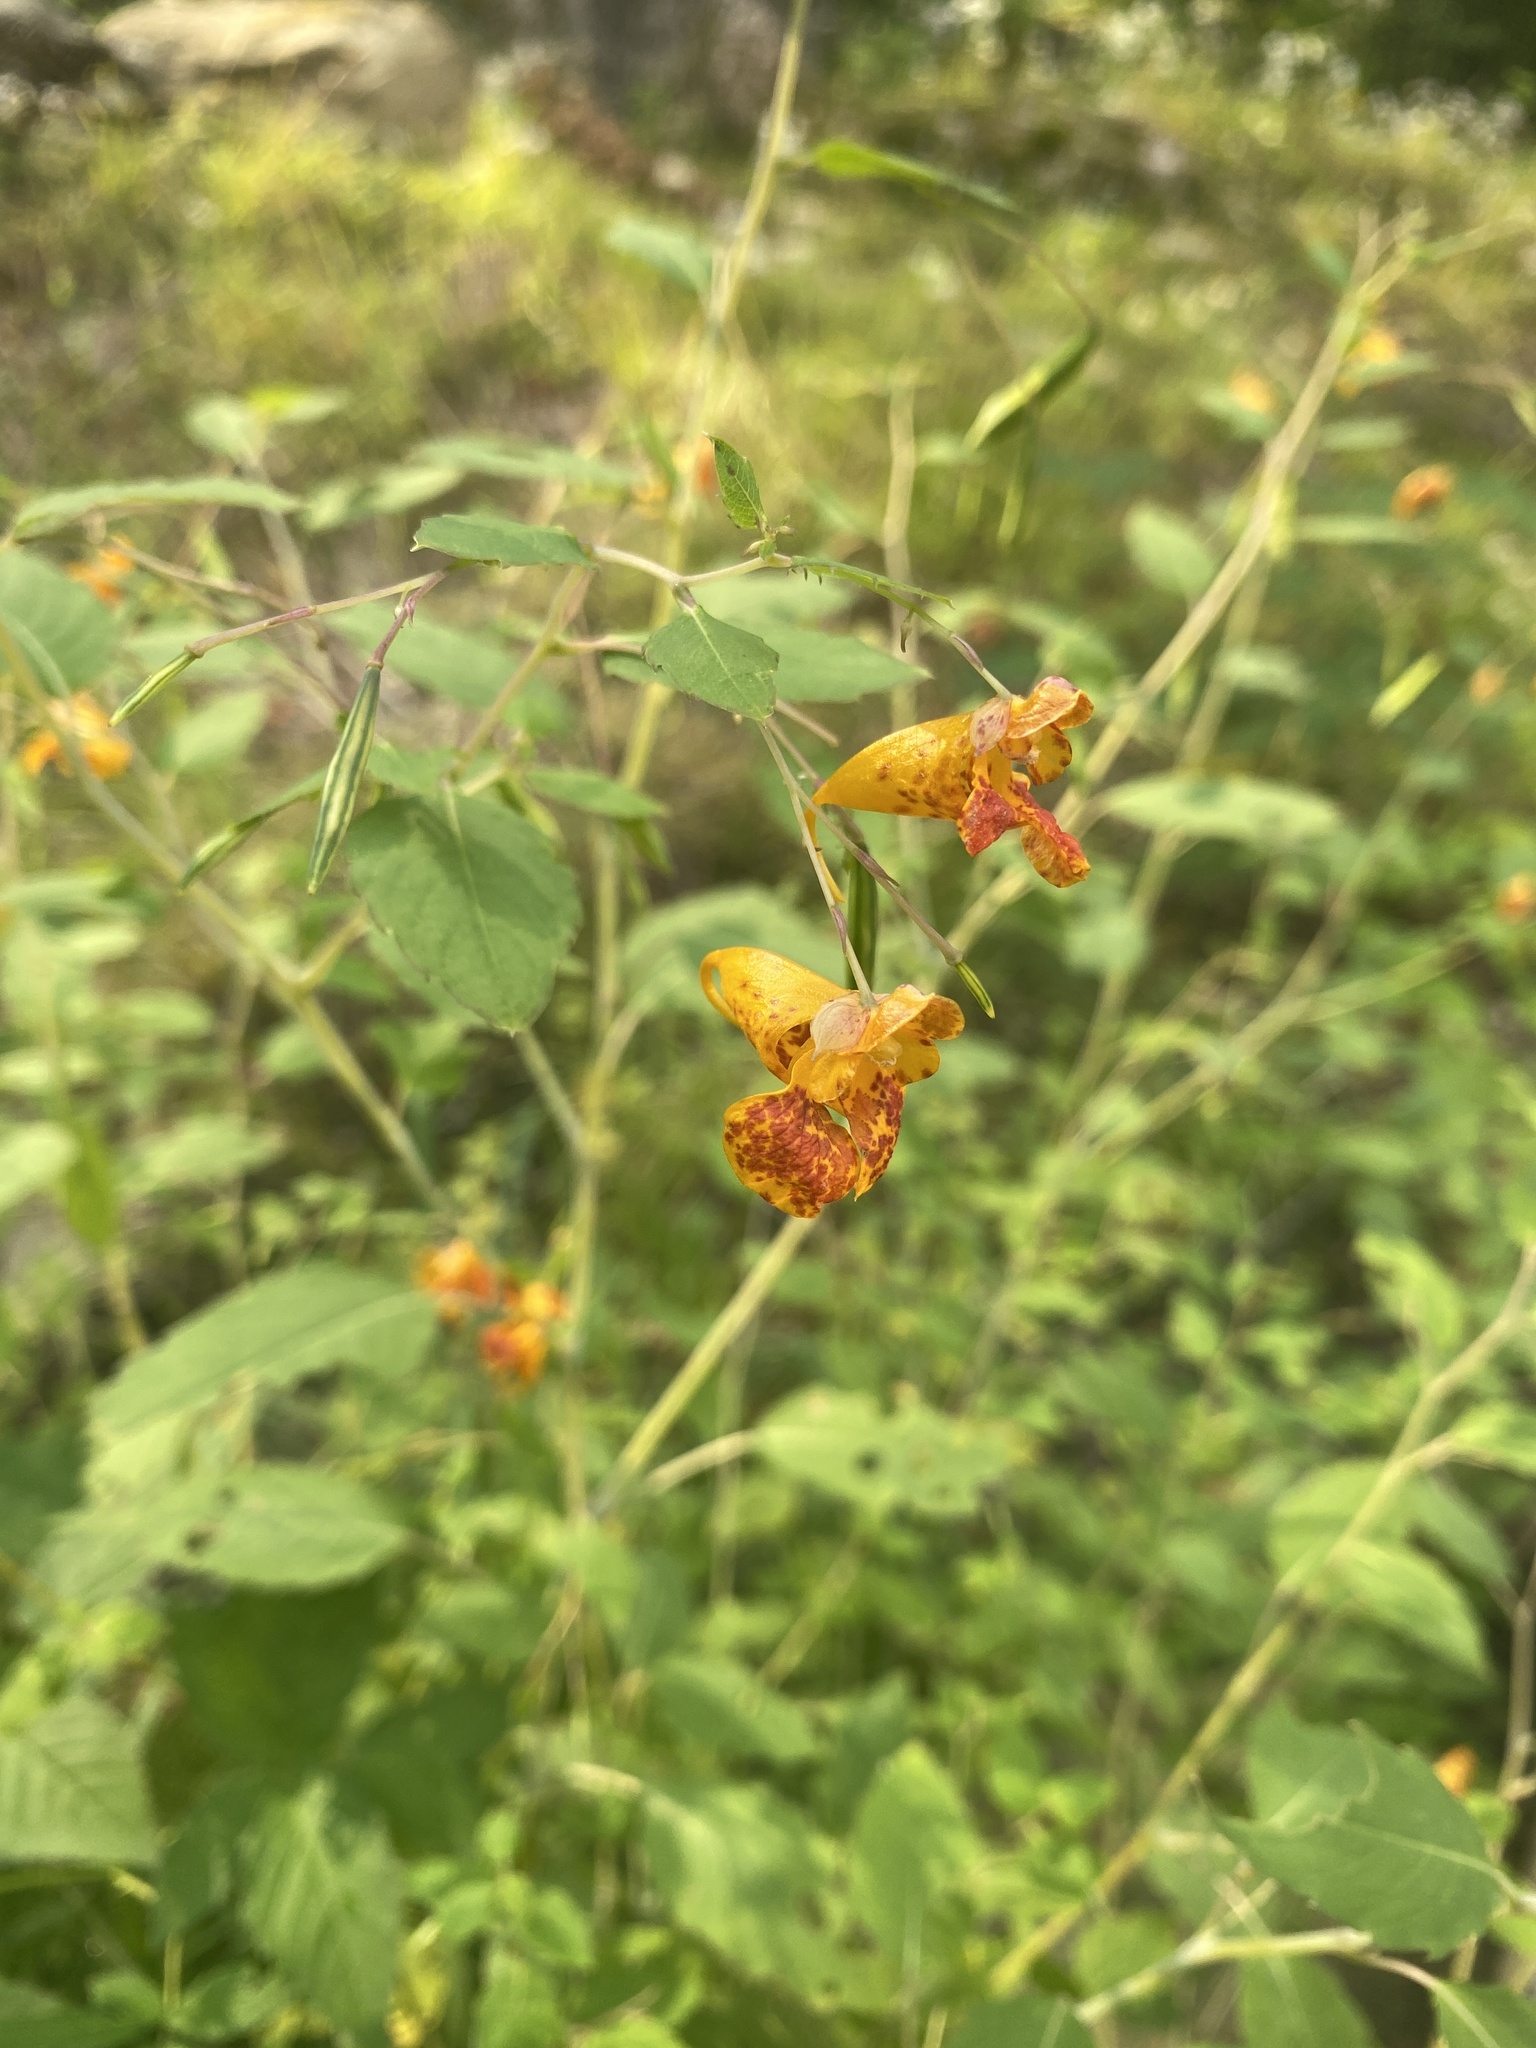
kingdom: Plantae
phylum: Tracheophyta
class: Magnoliopsida
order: Ericales
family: Balsaminaceae
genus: Impatiens
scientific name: Impatiens capensis
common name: Orange balsam
